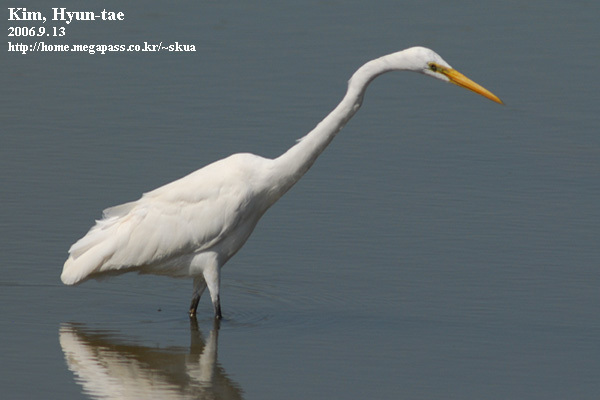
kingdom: Animalia
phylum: Chordata
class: Aves
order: Pelecaniformes
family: Ardeidae
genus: Ardea
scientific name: Ardea alba
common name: Great egret
